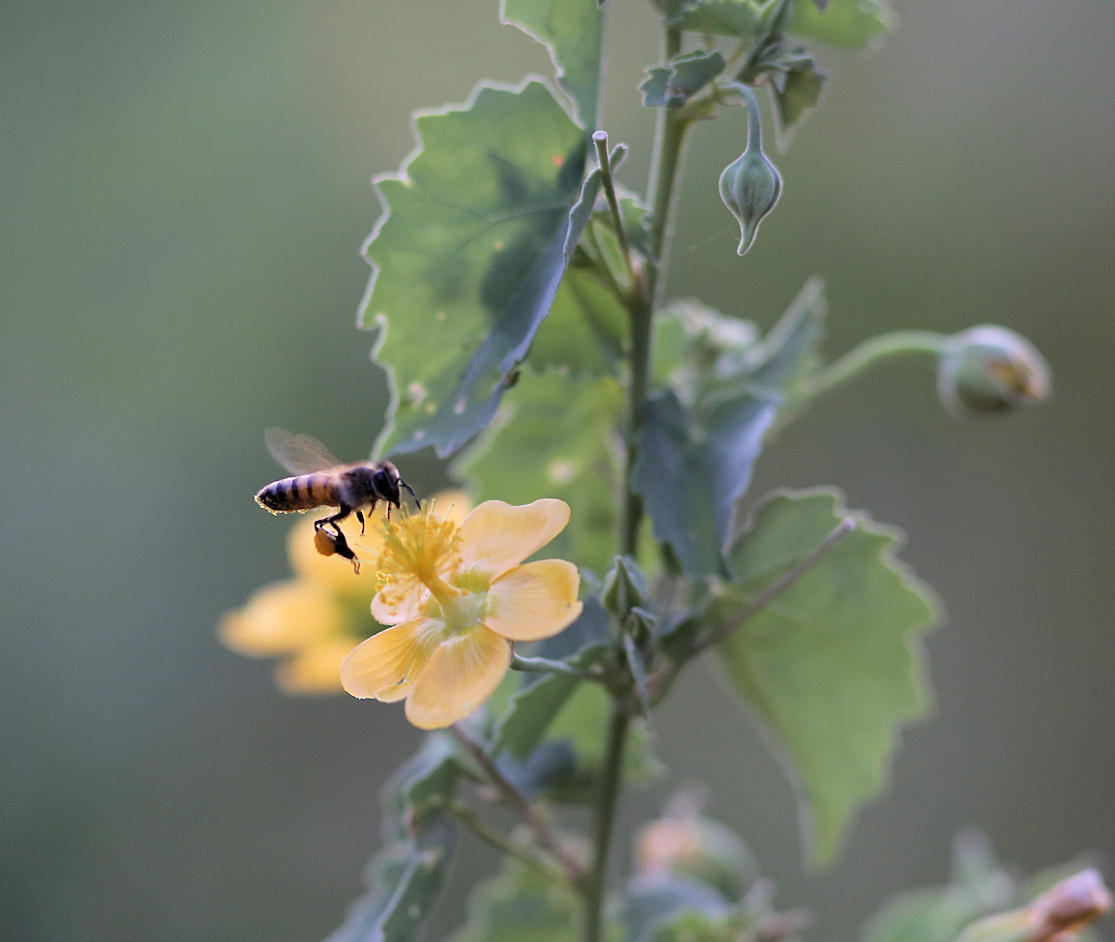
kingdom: Plantae
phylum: Tracheophyta
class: Magnoliopsida
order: Malvales
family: Malvaceae
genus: Abutilon
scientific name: Abutilon pycnodon
